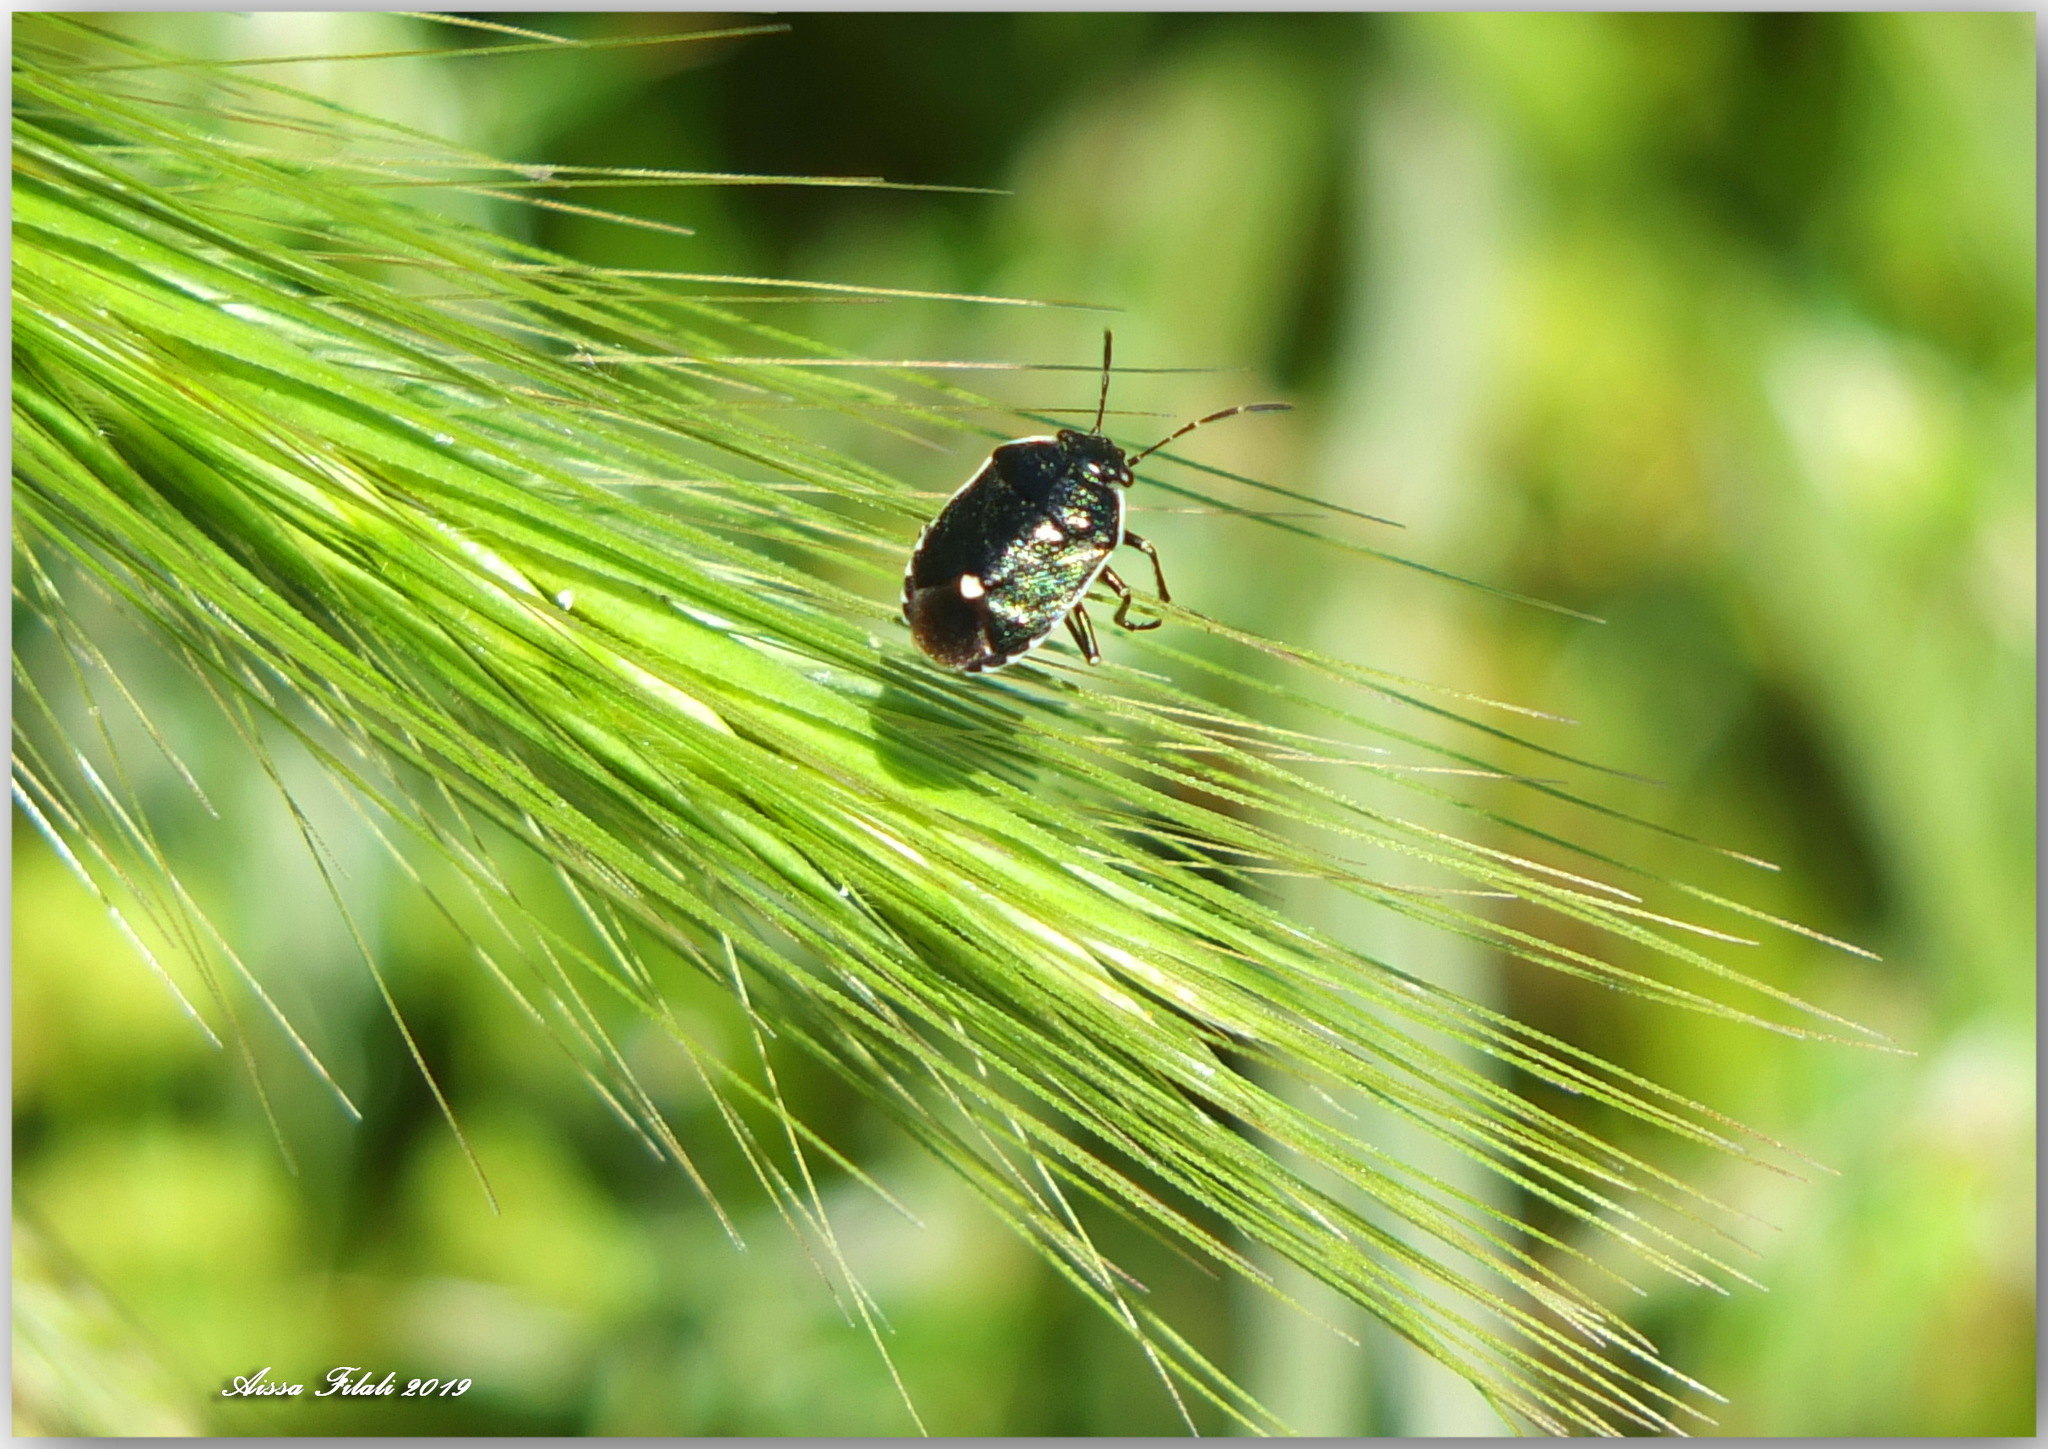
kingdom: Animalia
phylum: Arthropoda
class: Insecta
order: Hemiptera
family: Pentatomidae
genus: Eurydema
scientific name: Eurydema oleracea
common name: Cabbage bug
